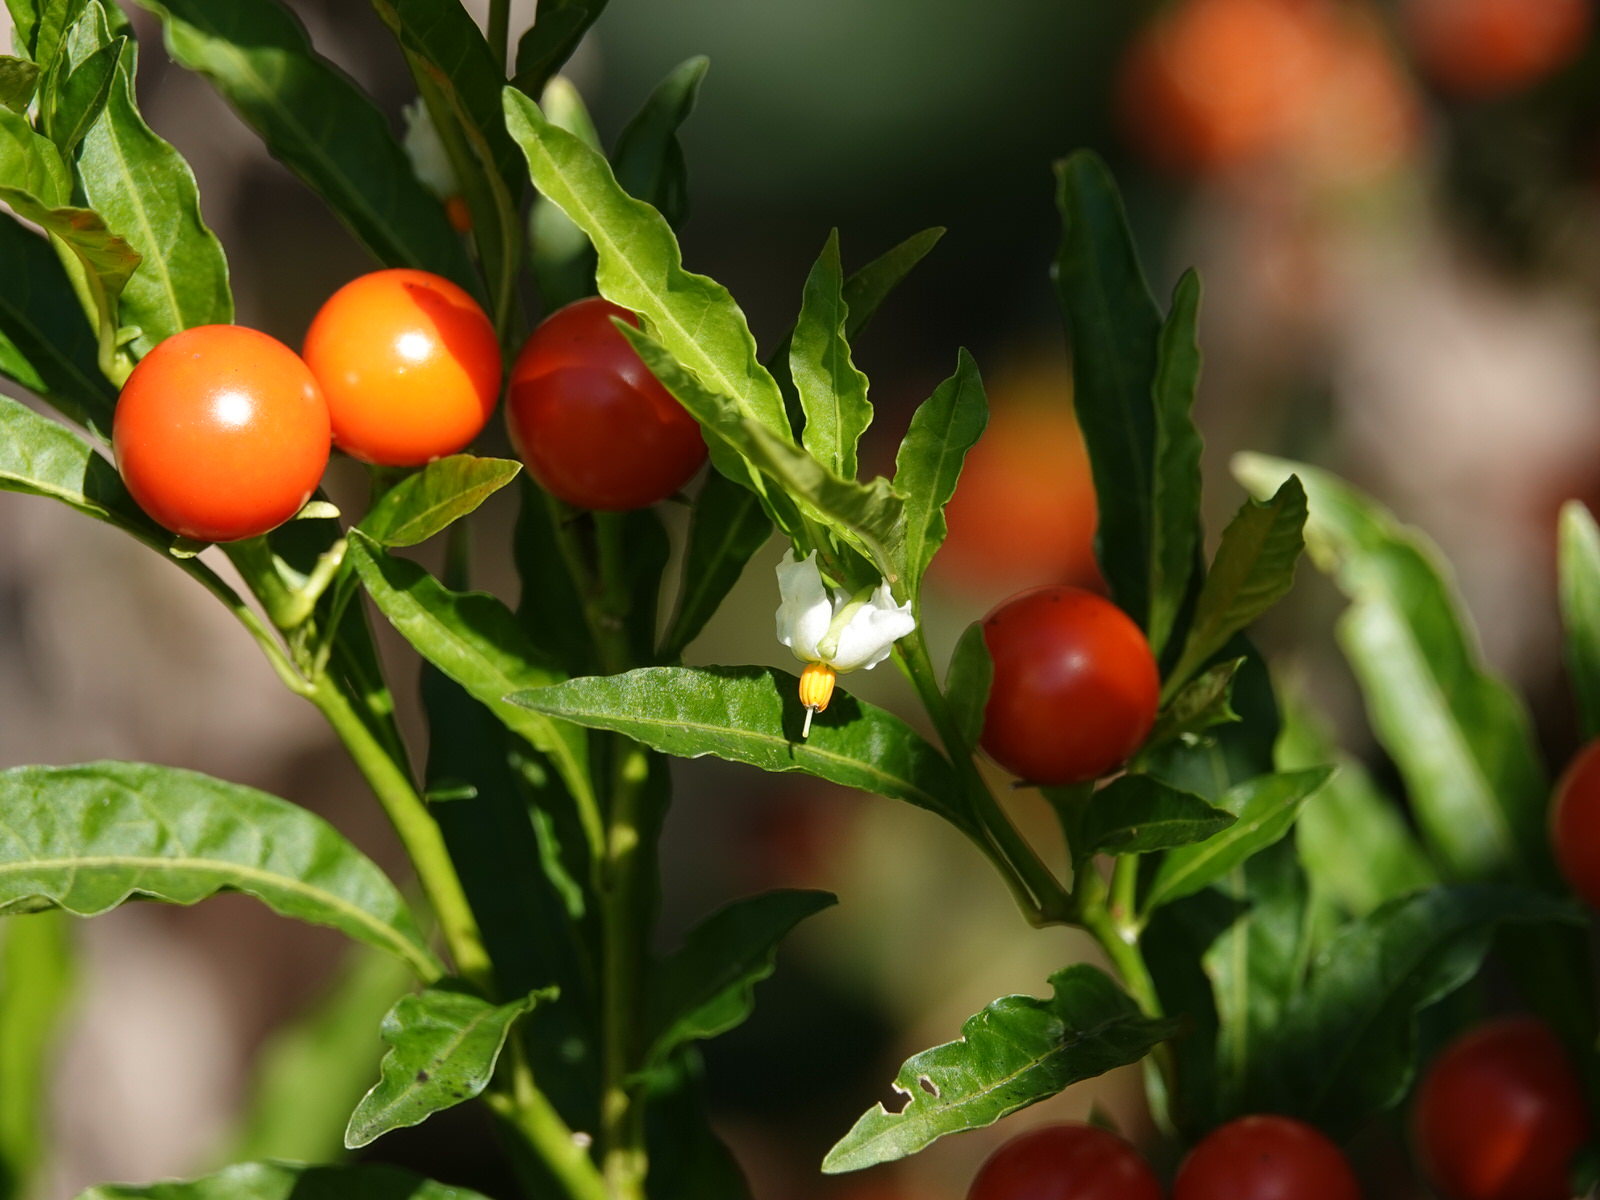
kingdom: Plantae
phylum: Tracheophyta
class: Magnoliopsida
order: Solanales
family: Solanaceae
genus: Solanum
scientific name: Solanum pseudocapsicum
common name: Jerusalem cherry
